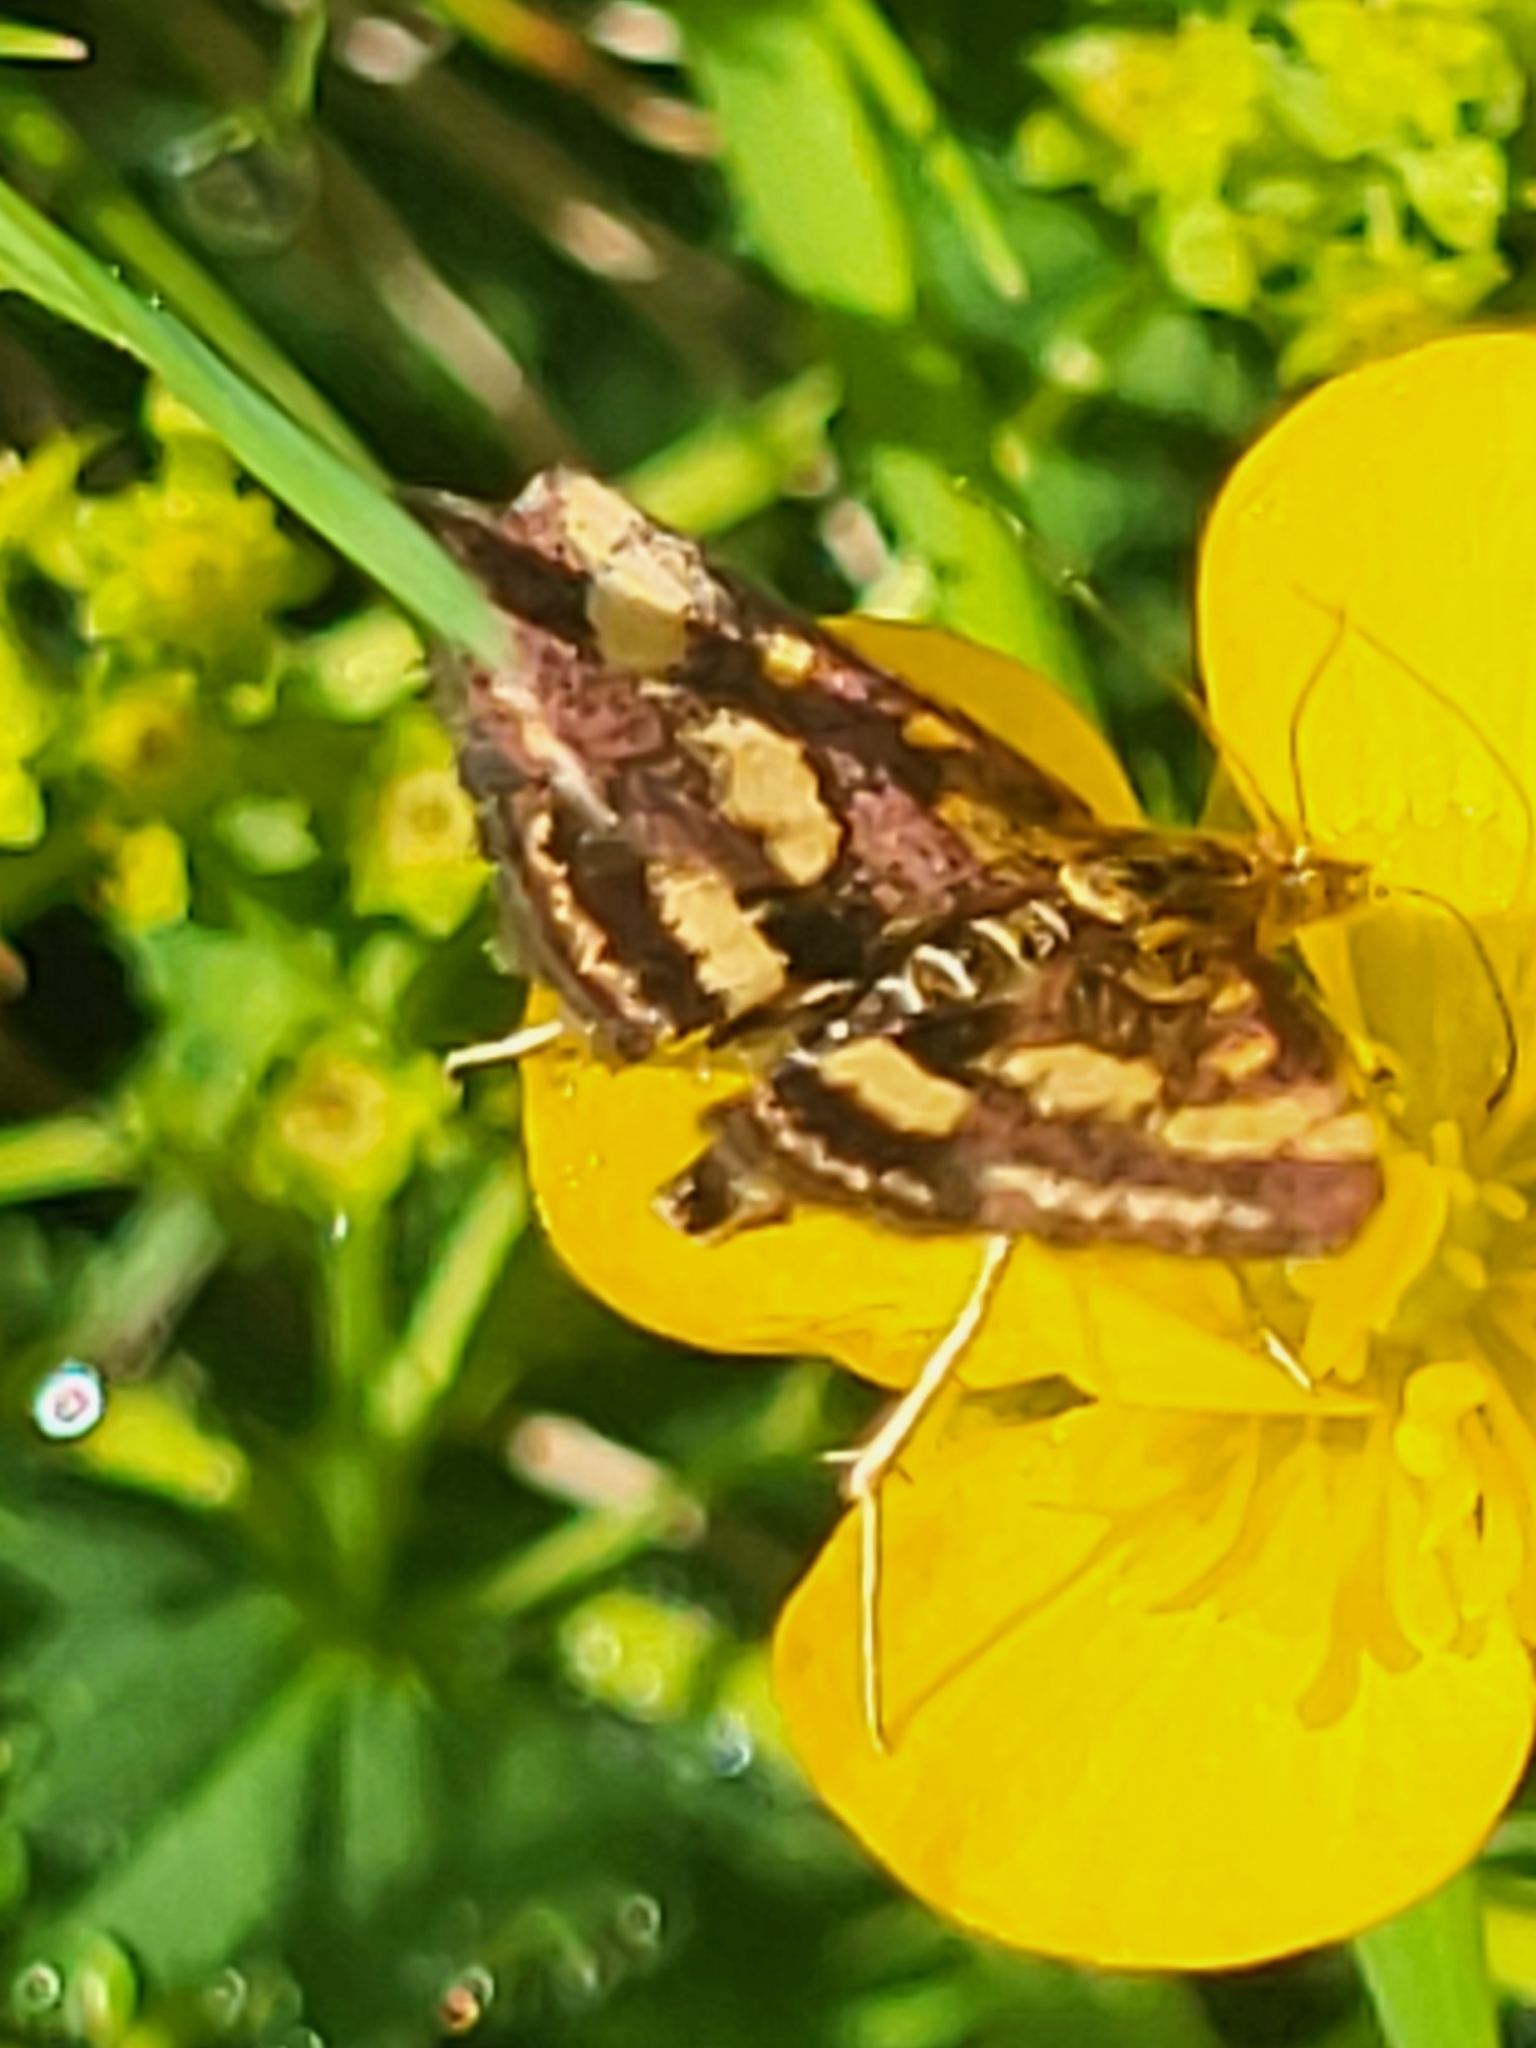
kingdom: Animalia
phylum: Arthropoda
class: Insecta
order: Lepidoptera
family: Crambidae
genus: Pyrausta
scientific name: Pyrausta purpuralis
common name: Common purple & gold
